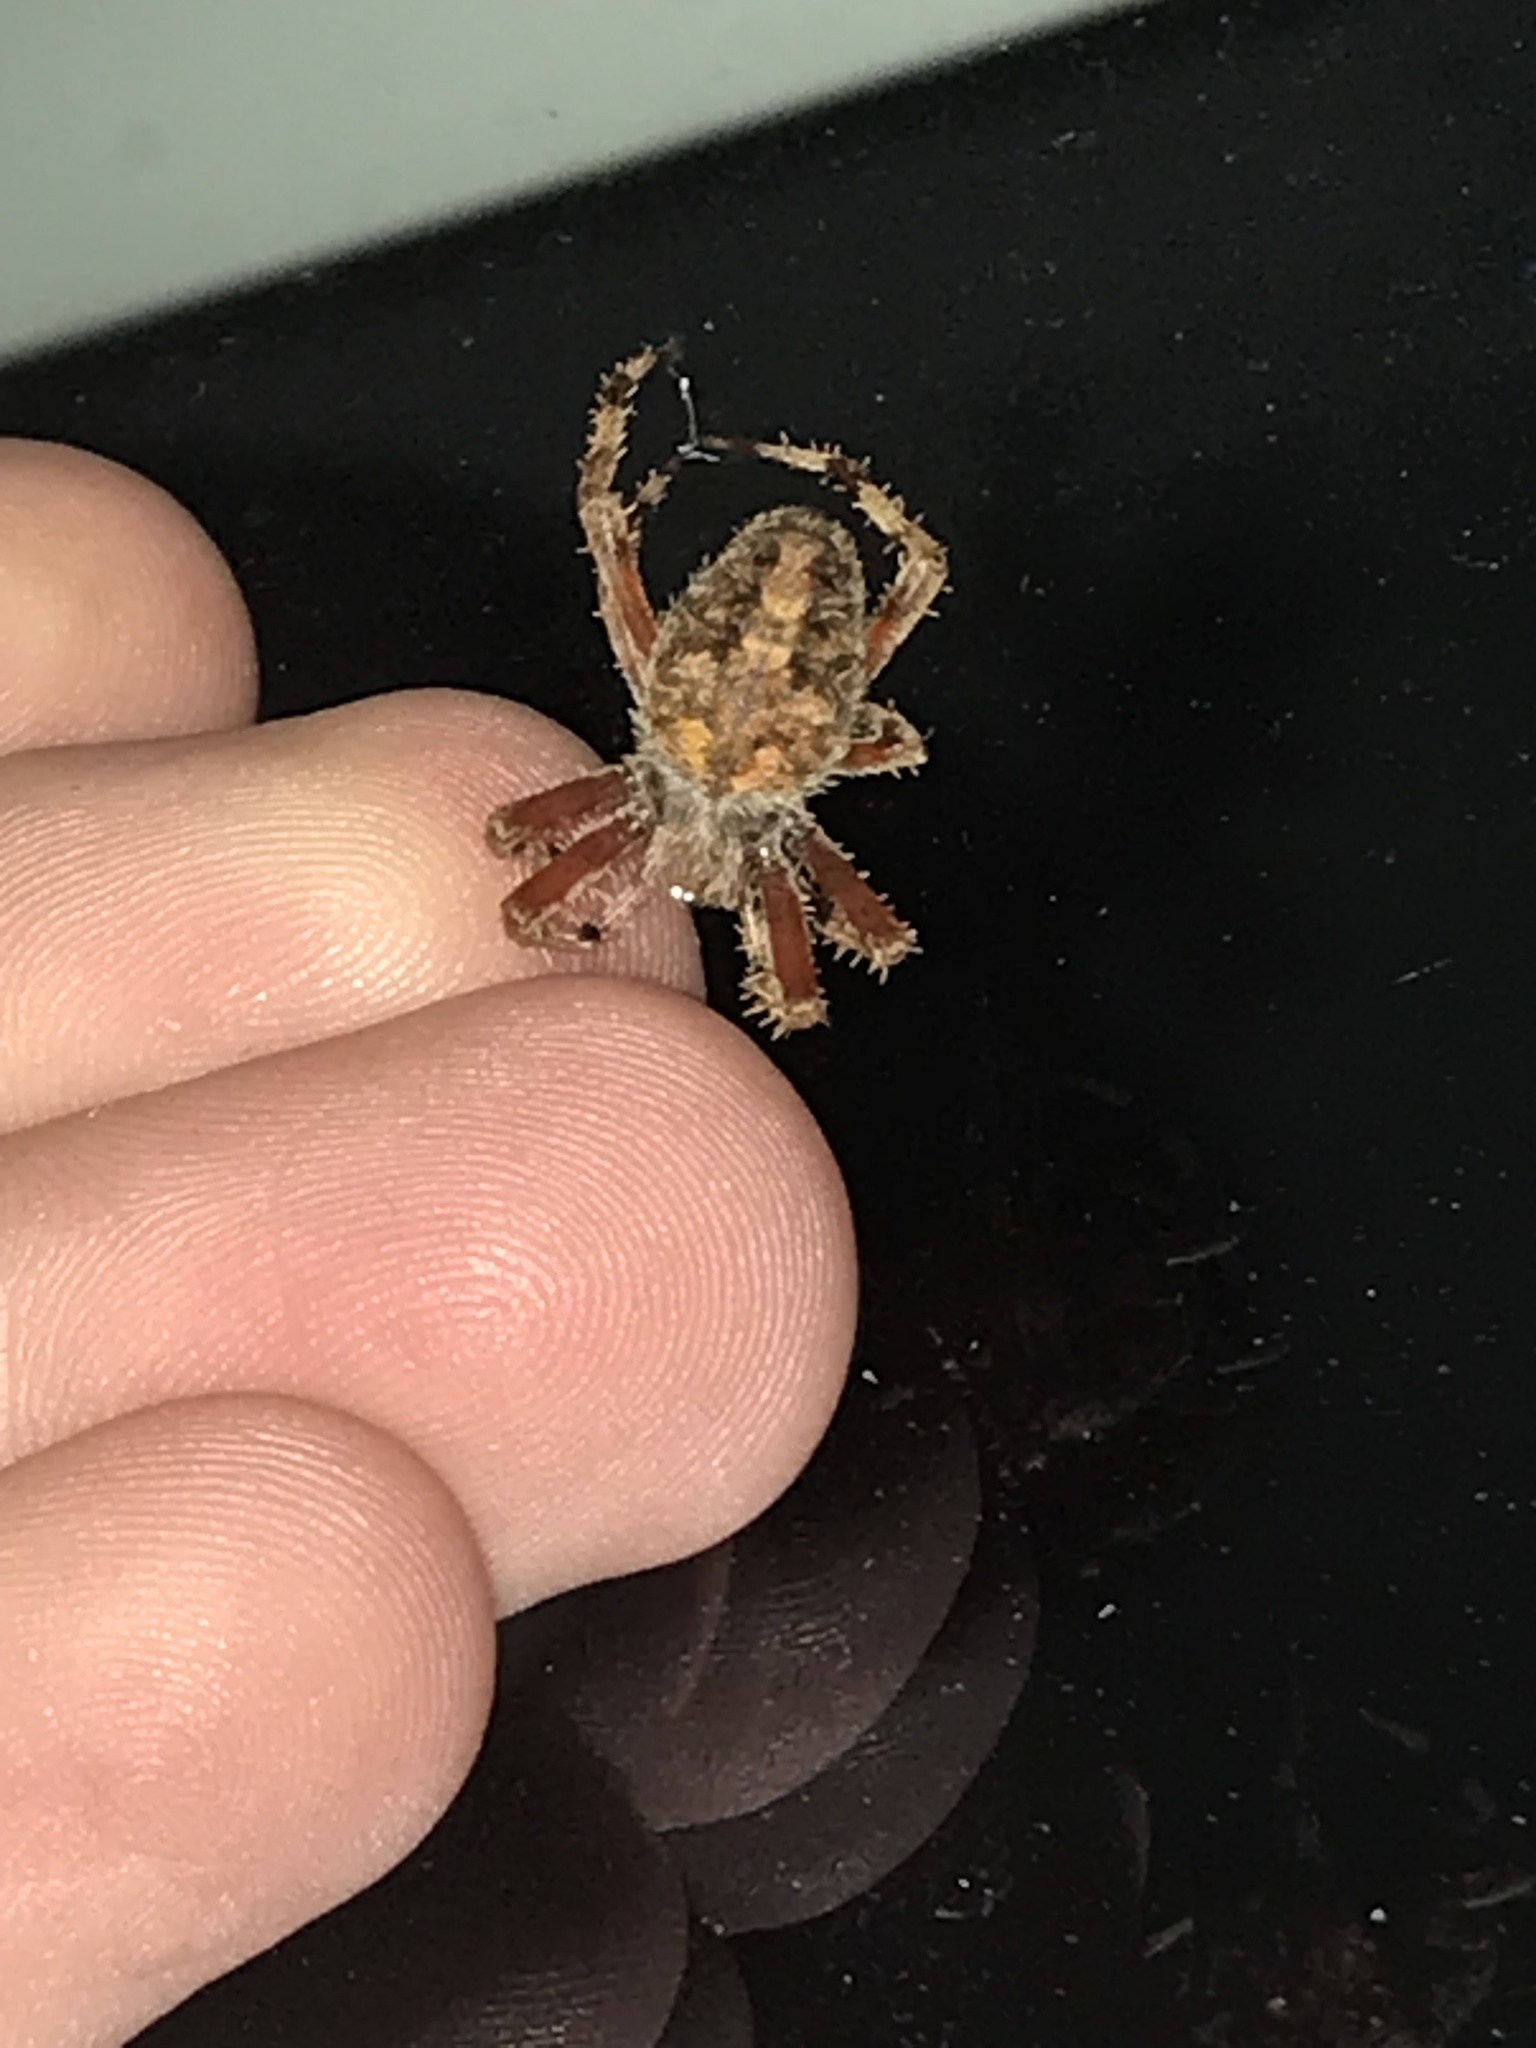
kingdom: Animalia
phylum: Arthropoda
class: Arachnida
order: Araneae
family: Araneidae
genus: Neoscona
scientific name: Neoscona crucifera
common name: Spotted orbweaver
